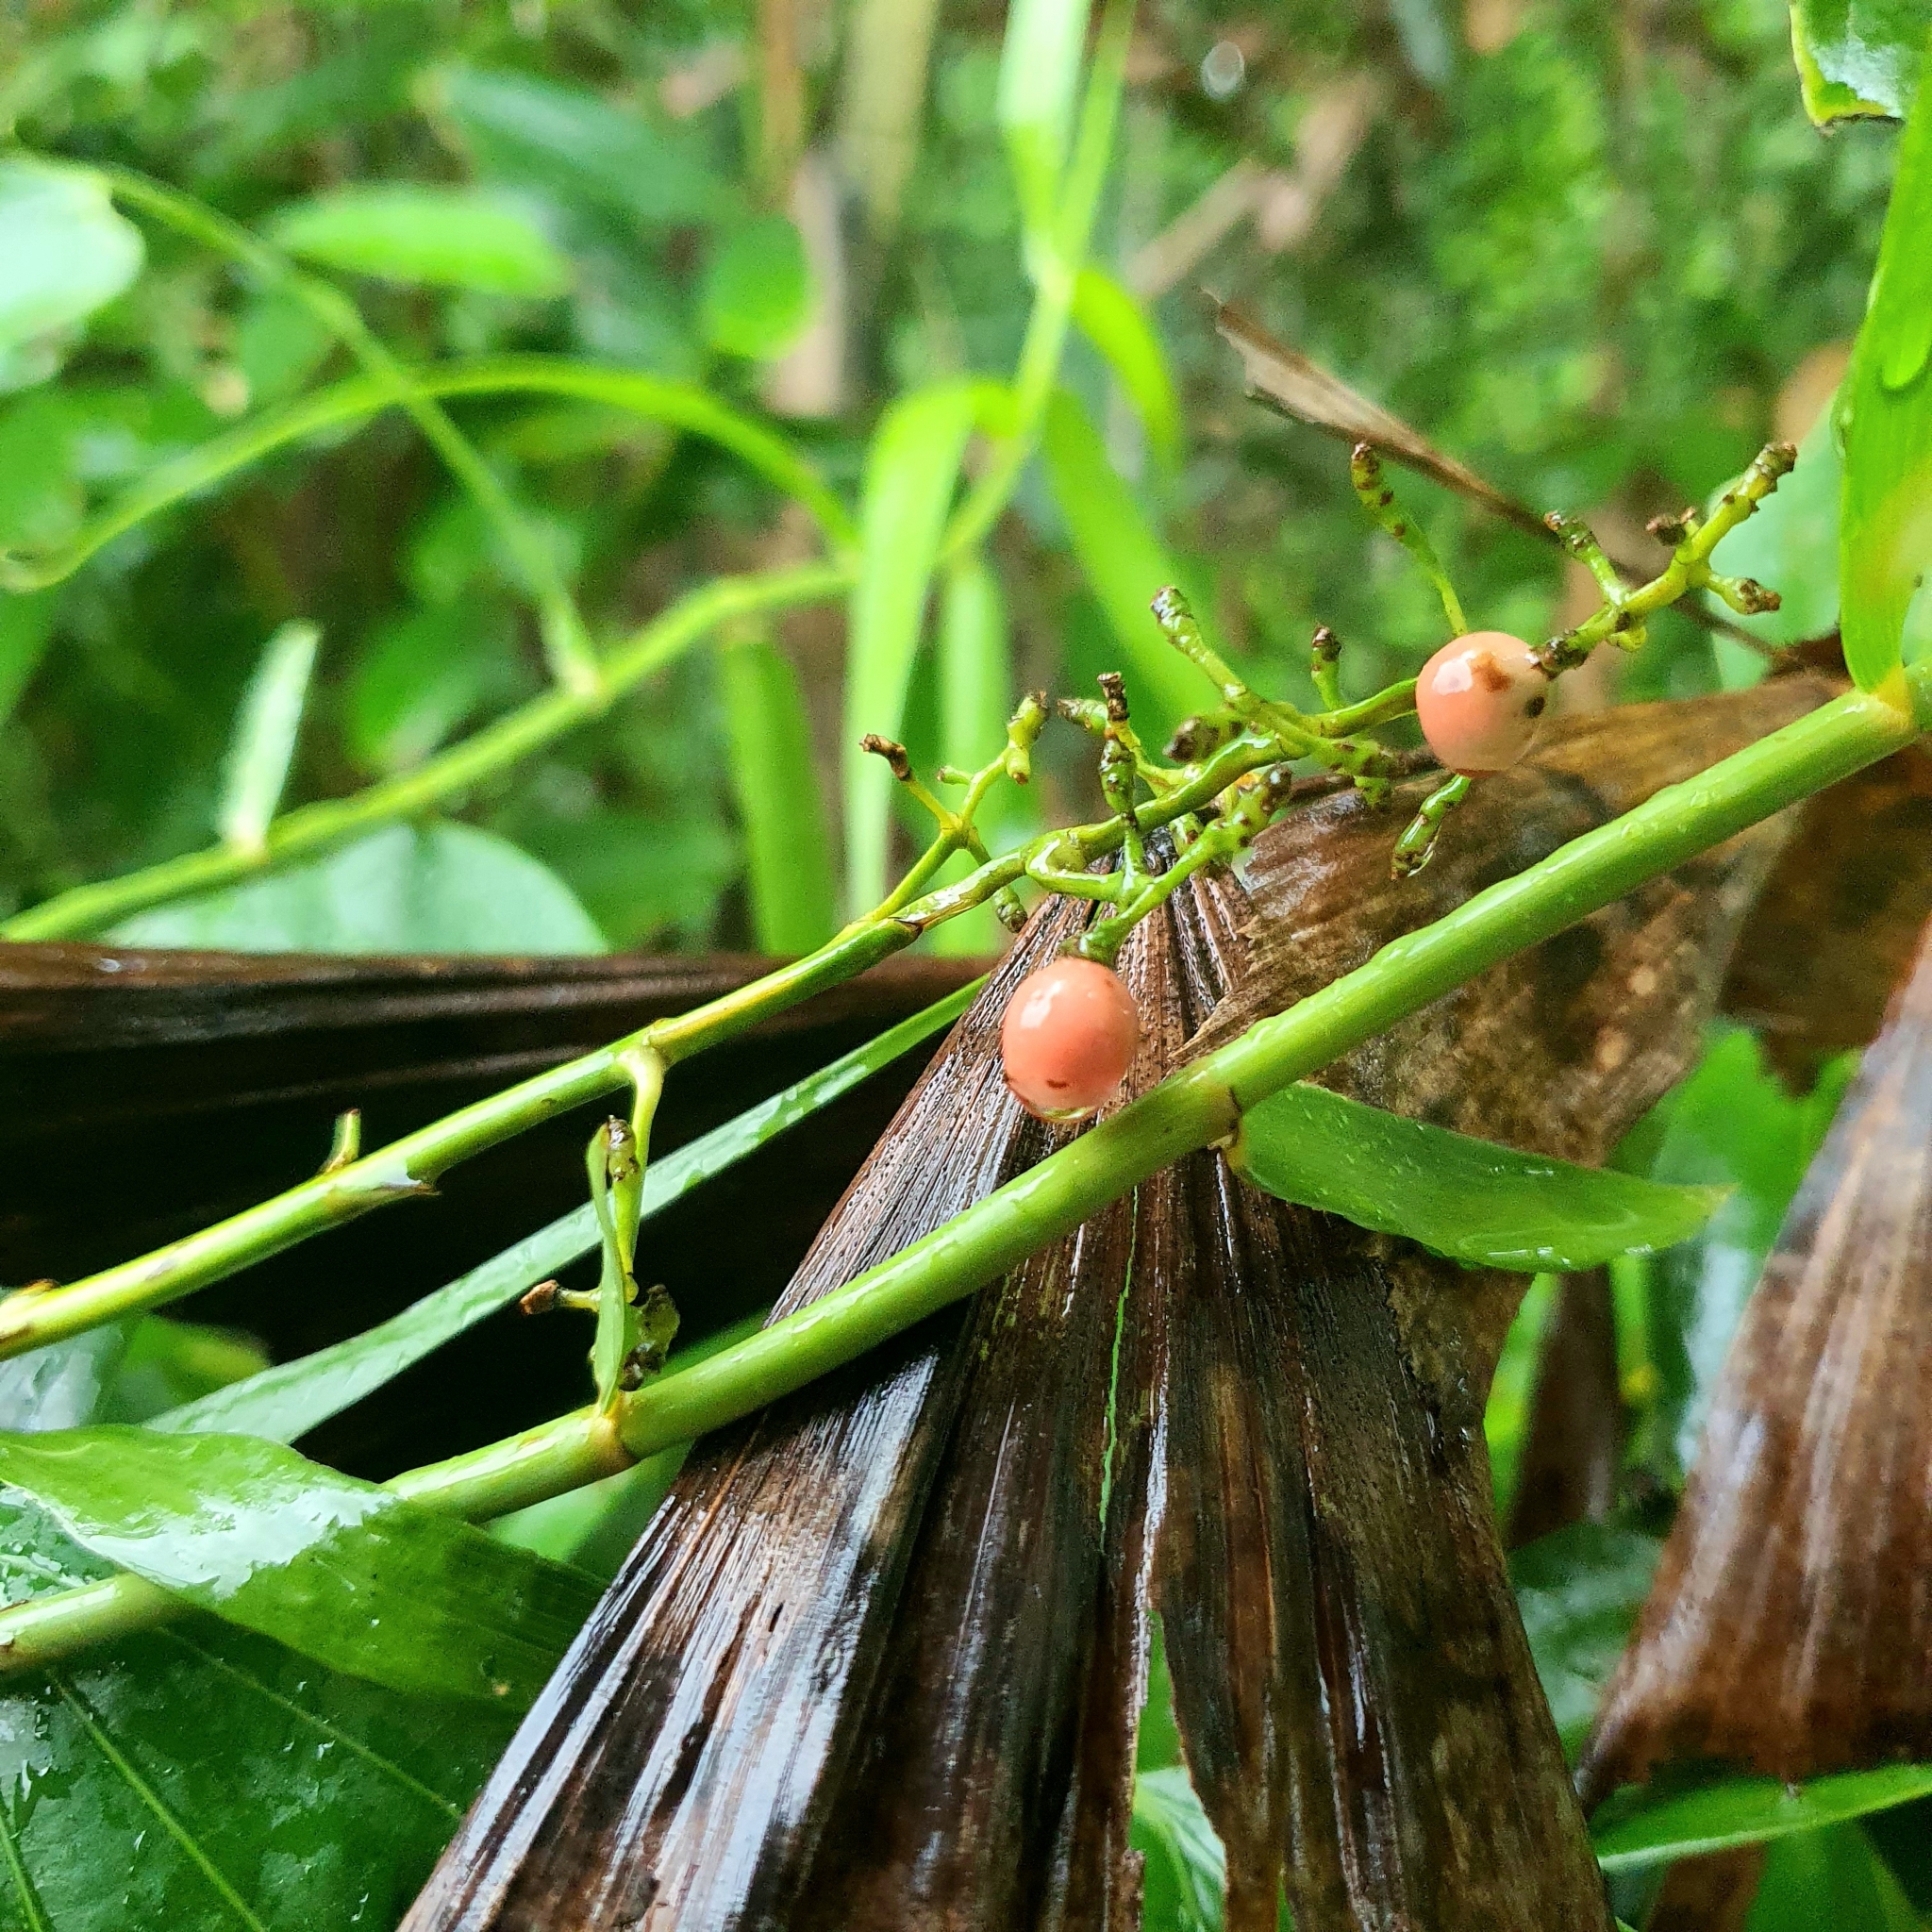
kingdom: Plantae
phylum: Tracheophyta
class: Liliopsida
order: Poales
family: Flagellariaceae
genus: Flagellaria
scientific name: Flagellaria indica
